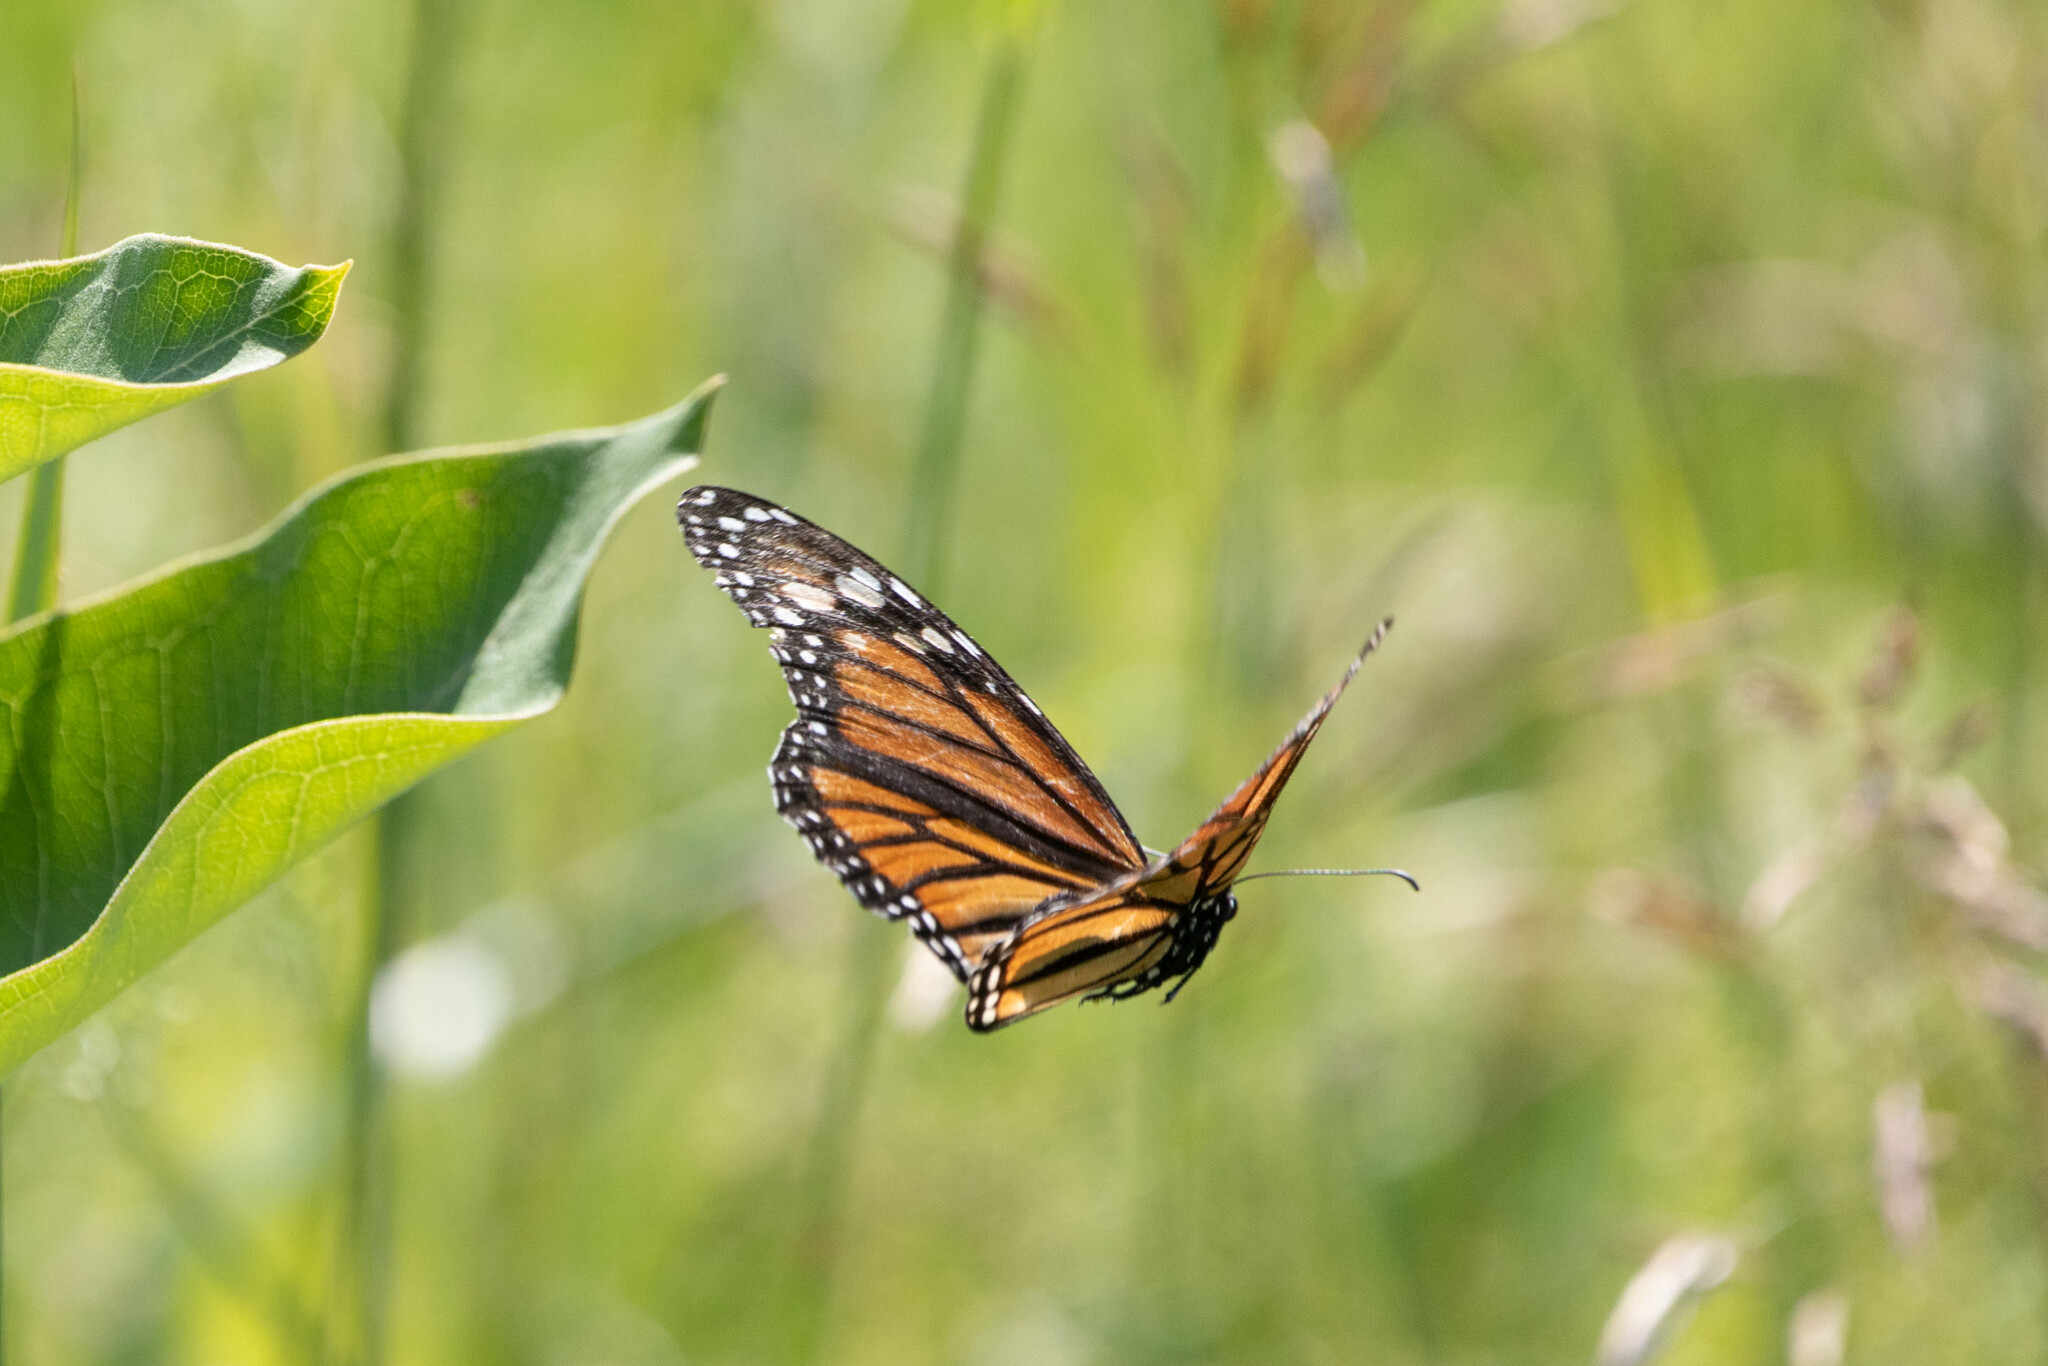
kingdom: Animalia
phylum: Arthropoda
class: Insecta
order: Lepidoptera
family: Nymphalidae
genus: Danaus
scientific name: Danaus plexippus
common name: Monarch
